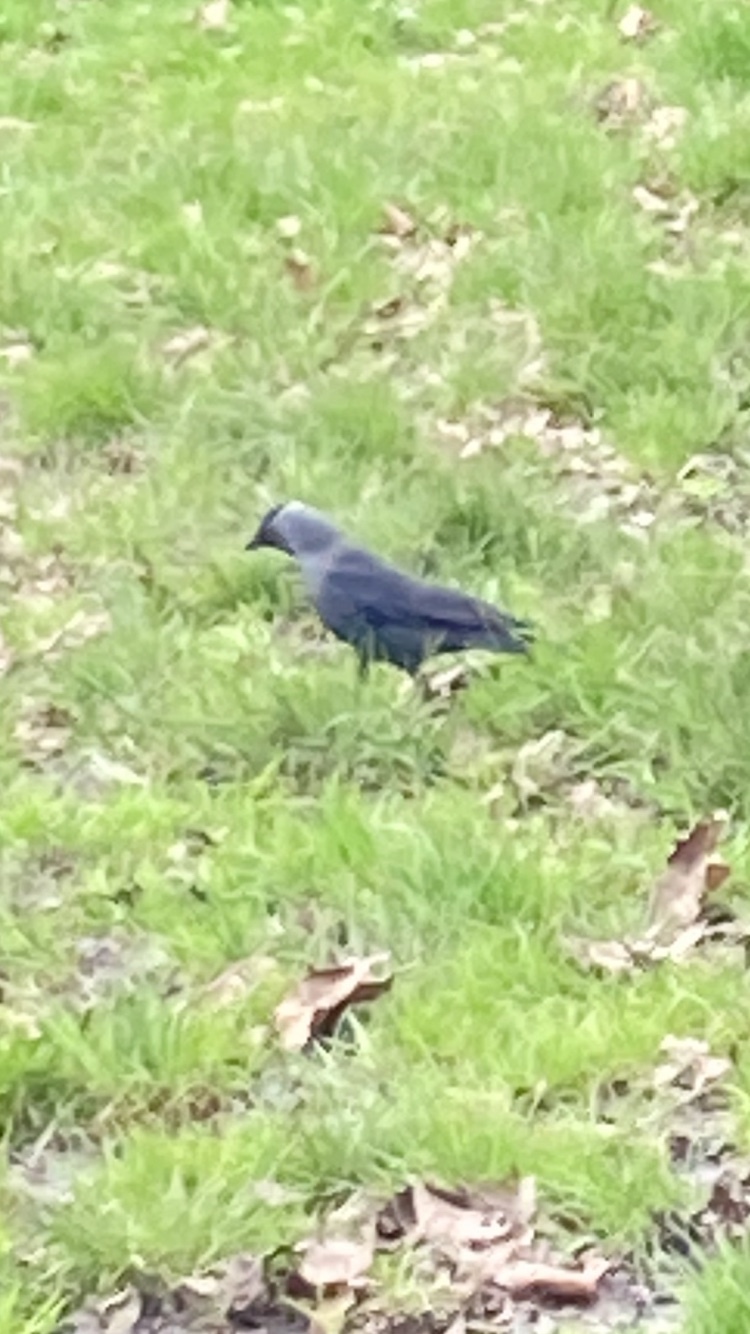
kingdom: Animalia
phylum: Chordata
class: Aves
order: Passeriformes
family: Corvidae
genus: Coloeus
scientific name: Coloeus monedula
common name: Western jackdaw
